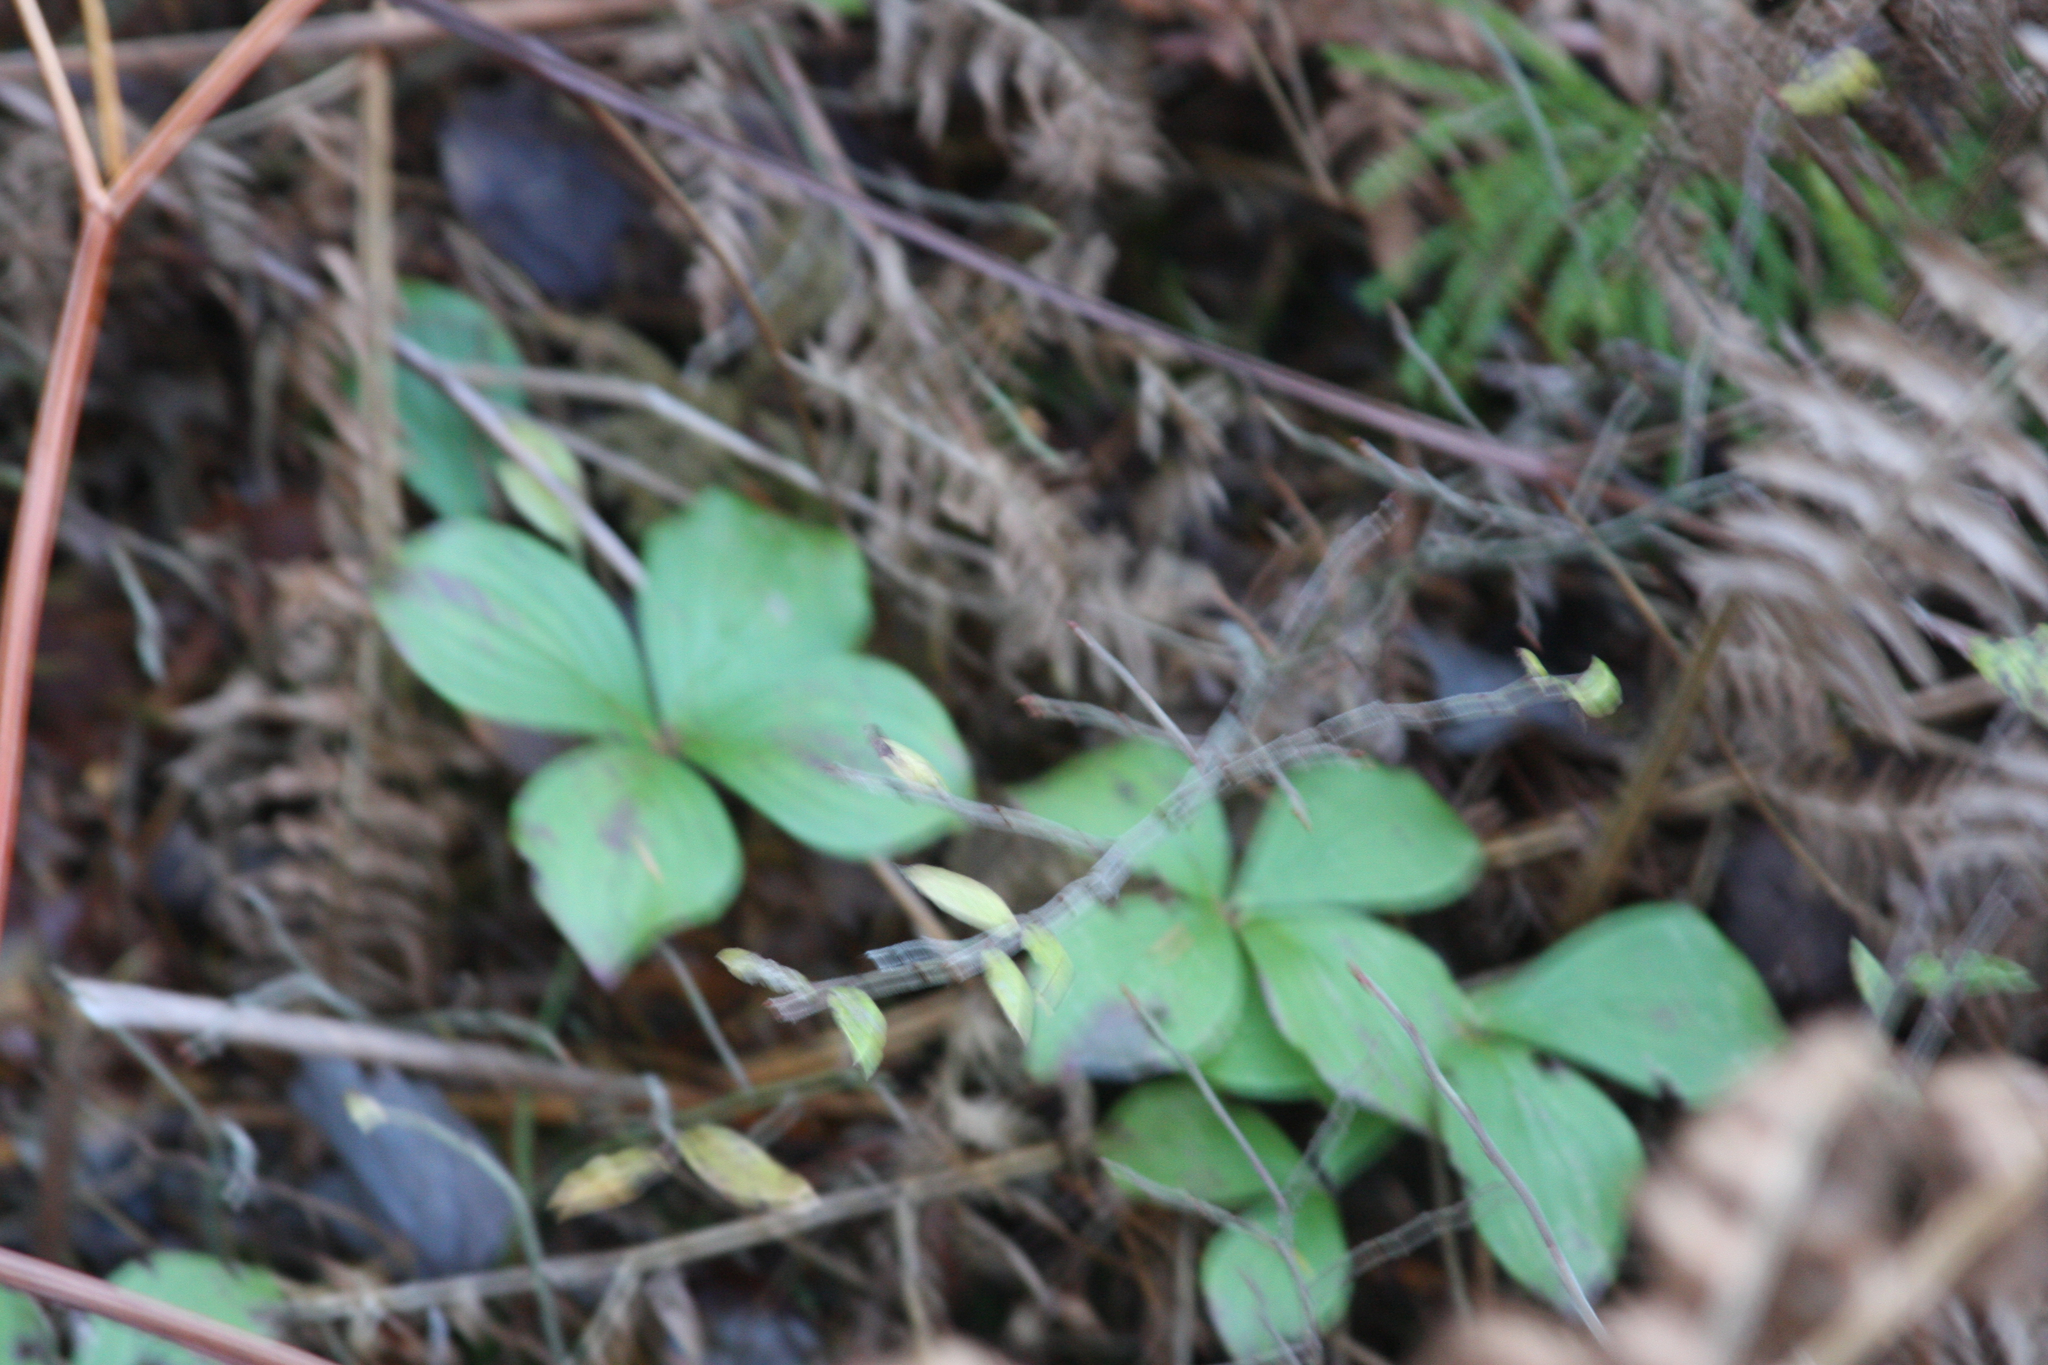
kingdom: Plantae
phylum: Tracheophyta
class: Magnoliopsida
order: Cornales
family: Cornaceae
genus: Cornus
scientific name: Cornus canadensis
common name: Creeping dogwood
